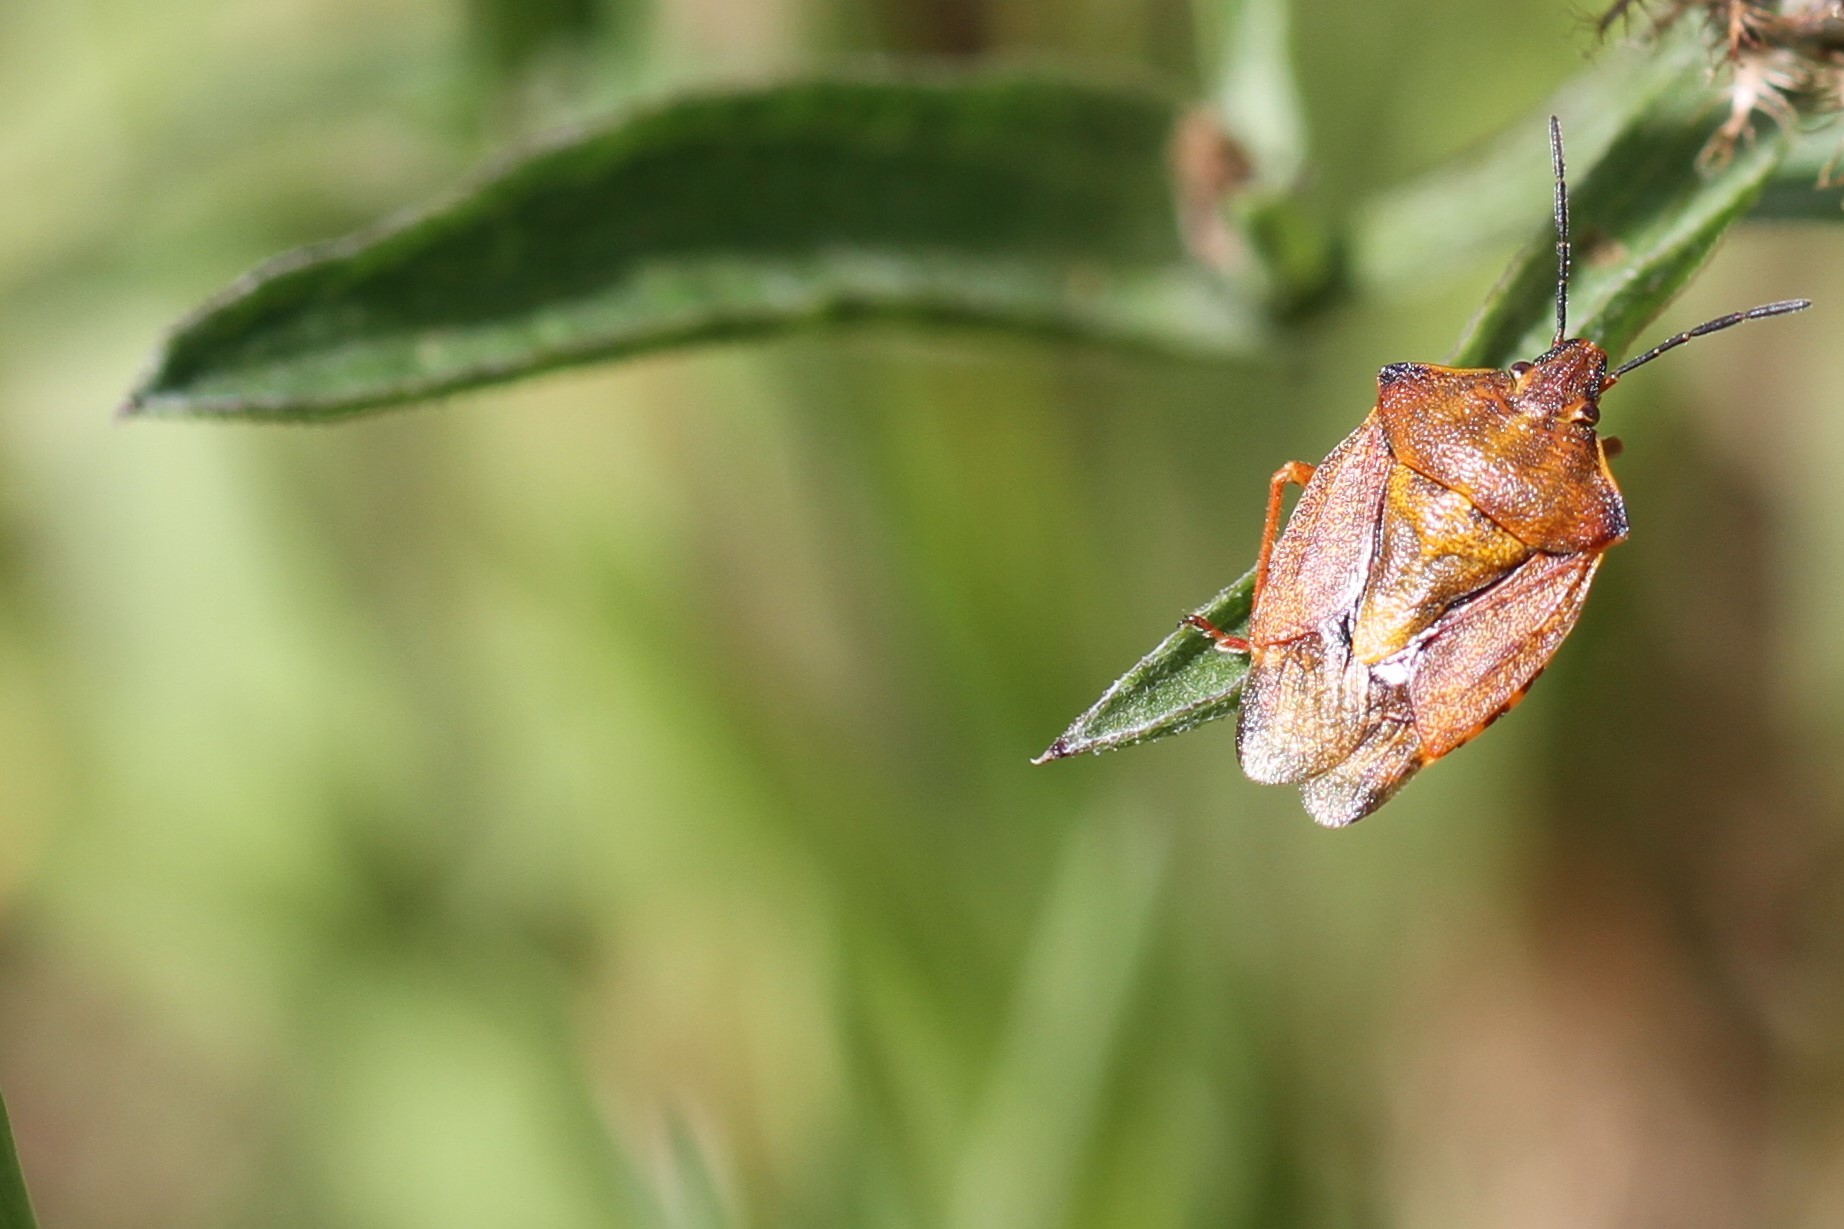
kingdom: Animalia
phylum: Arthropoda
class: Insecta
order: Hemiptera
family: Pentatomidae
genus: Carpocoris
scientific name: Carpocoris purpureipennis
